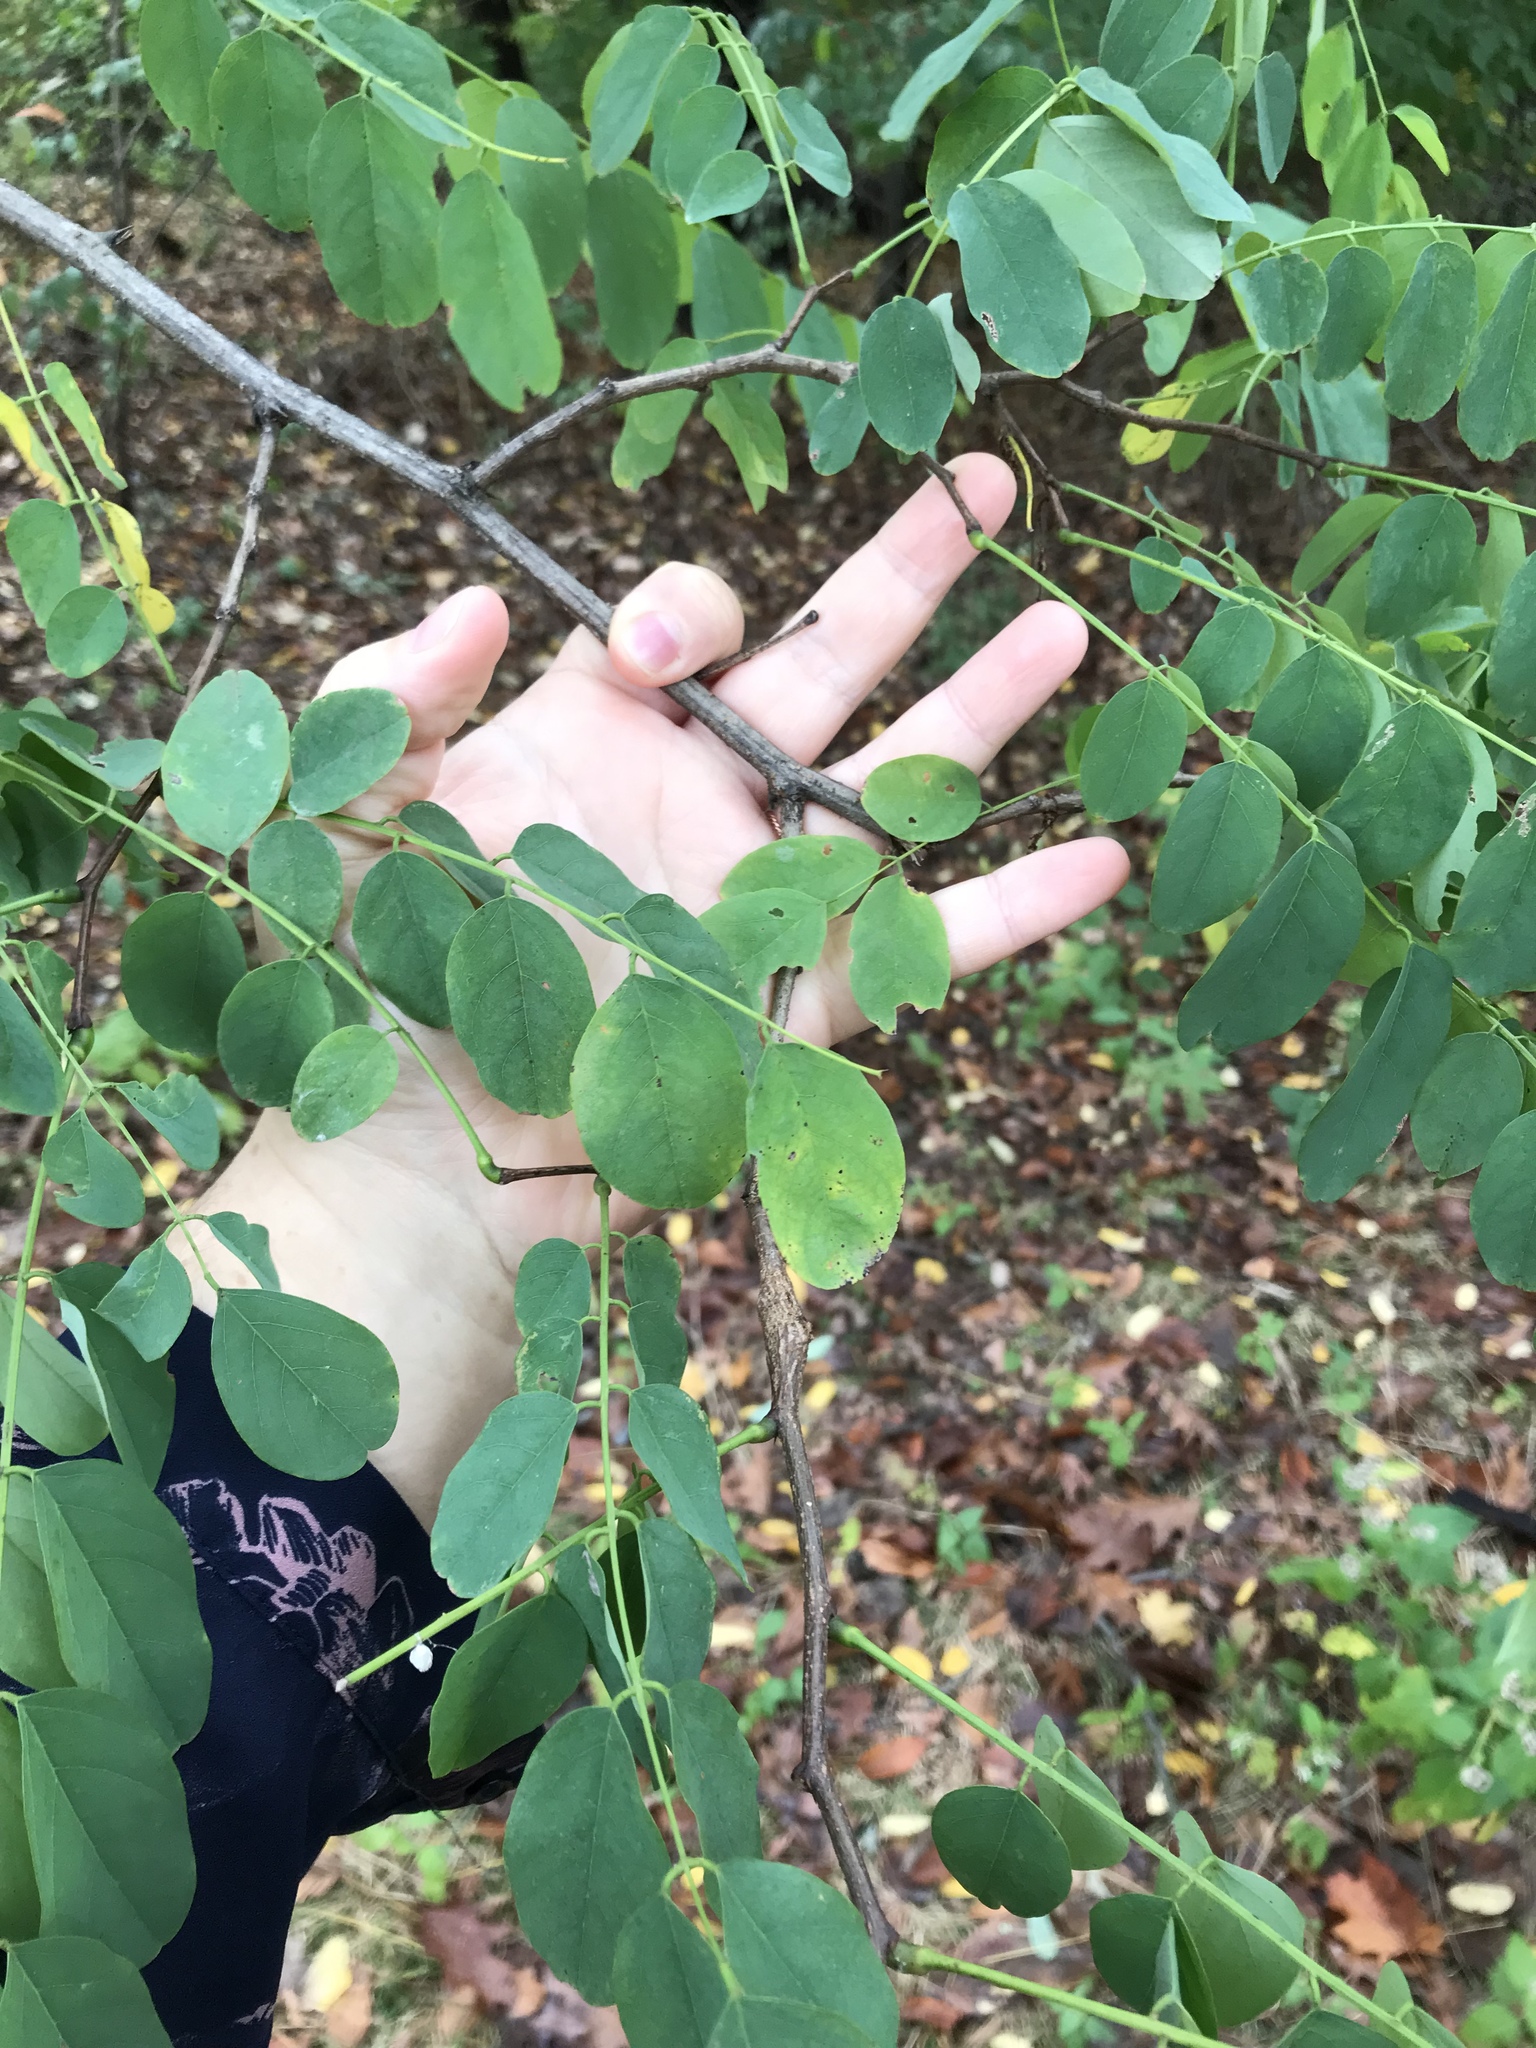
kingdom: Plantae
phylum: Tracheophyta
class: Magnoliopsida
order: Fabales
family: Fabaceae
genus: Robinia
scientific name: Robinia pseudoacacia
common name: Black locust
